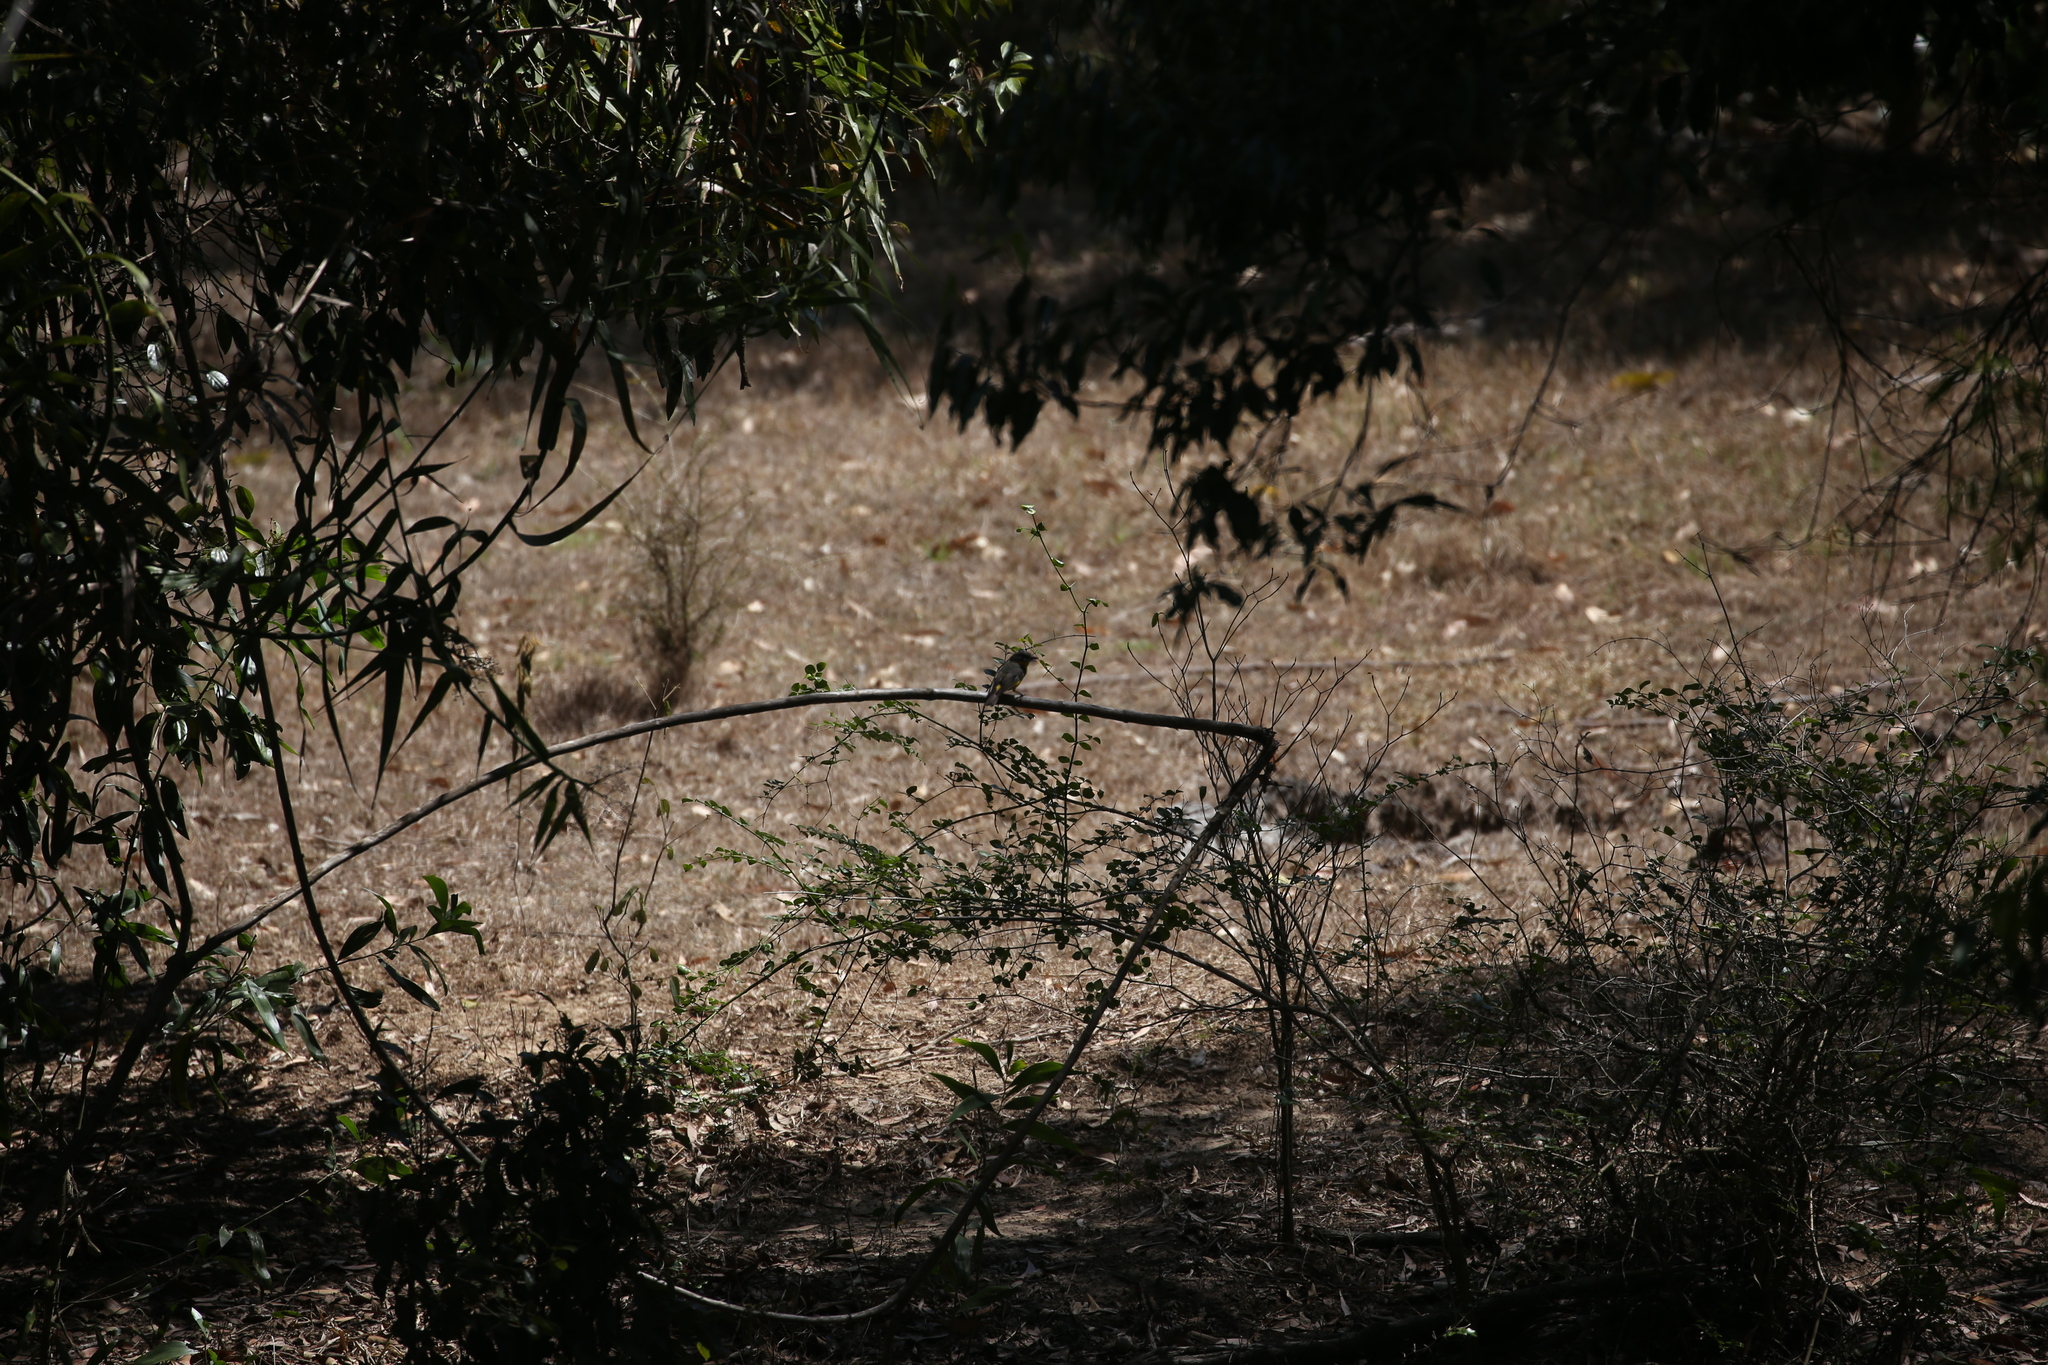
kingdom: Animalia
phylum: Chordata
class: Aves
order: Passeriformes
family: Petroicidae
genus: Eopsaltria
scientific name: Eopsaltria australis
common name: Eastern yellow robin
